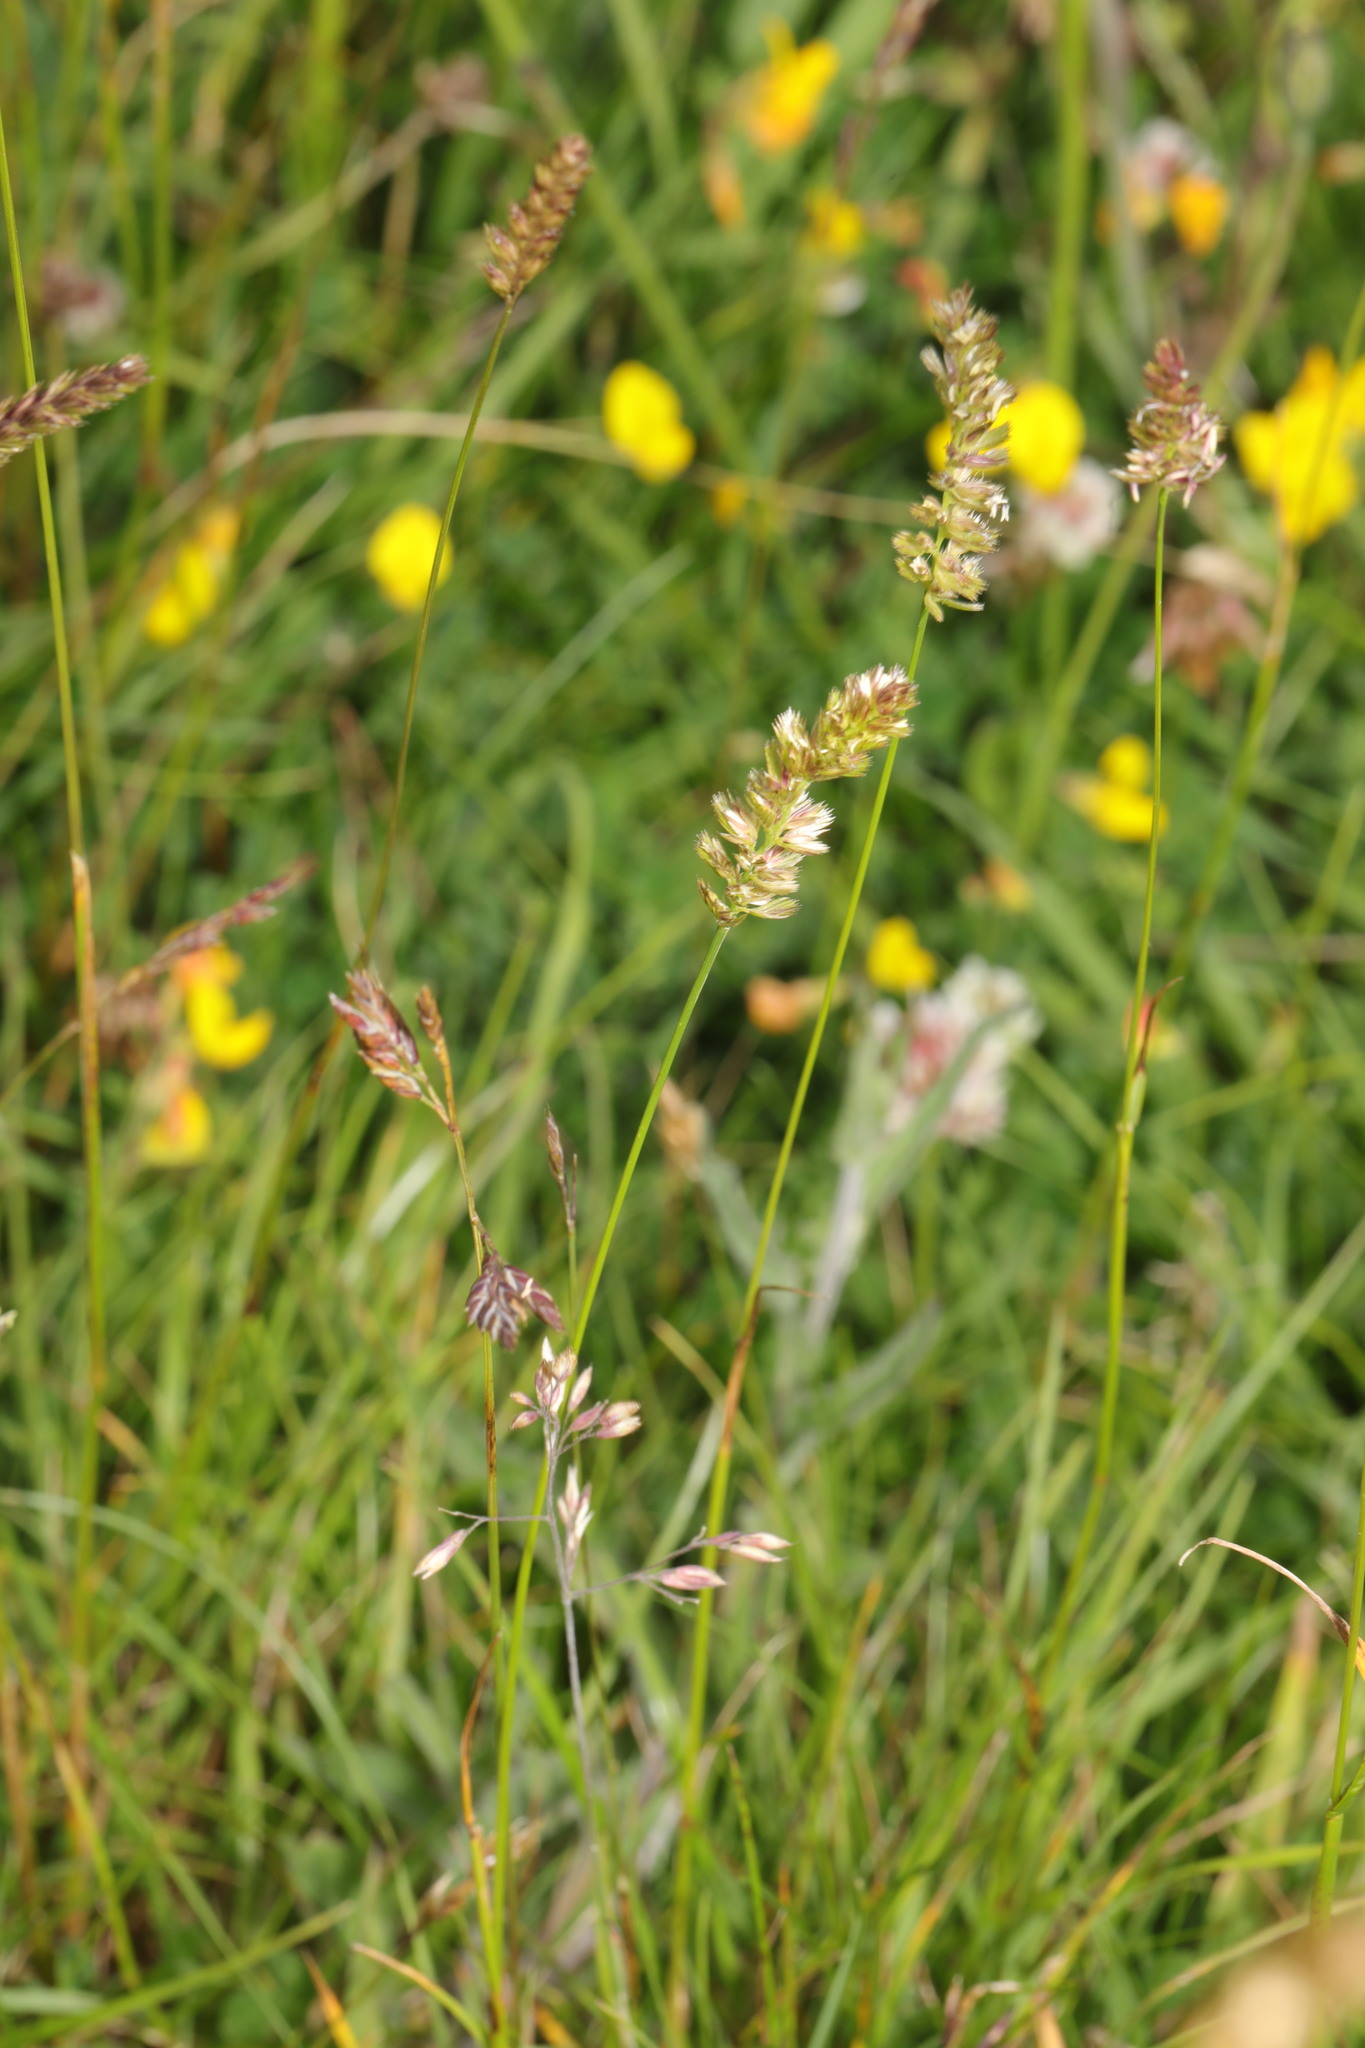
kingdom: Plantae
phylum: Tracheophyta
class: Liliopsida
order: Poales
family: Poaceae
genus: Cynosurus
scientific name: Cynosurus cristatus
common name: Crested dog's-tail
